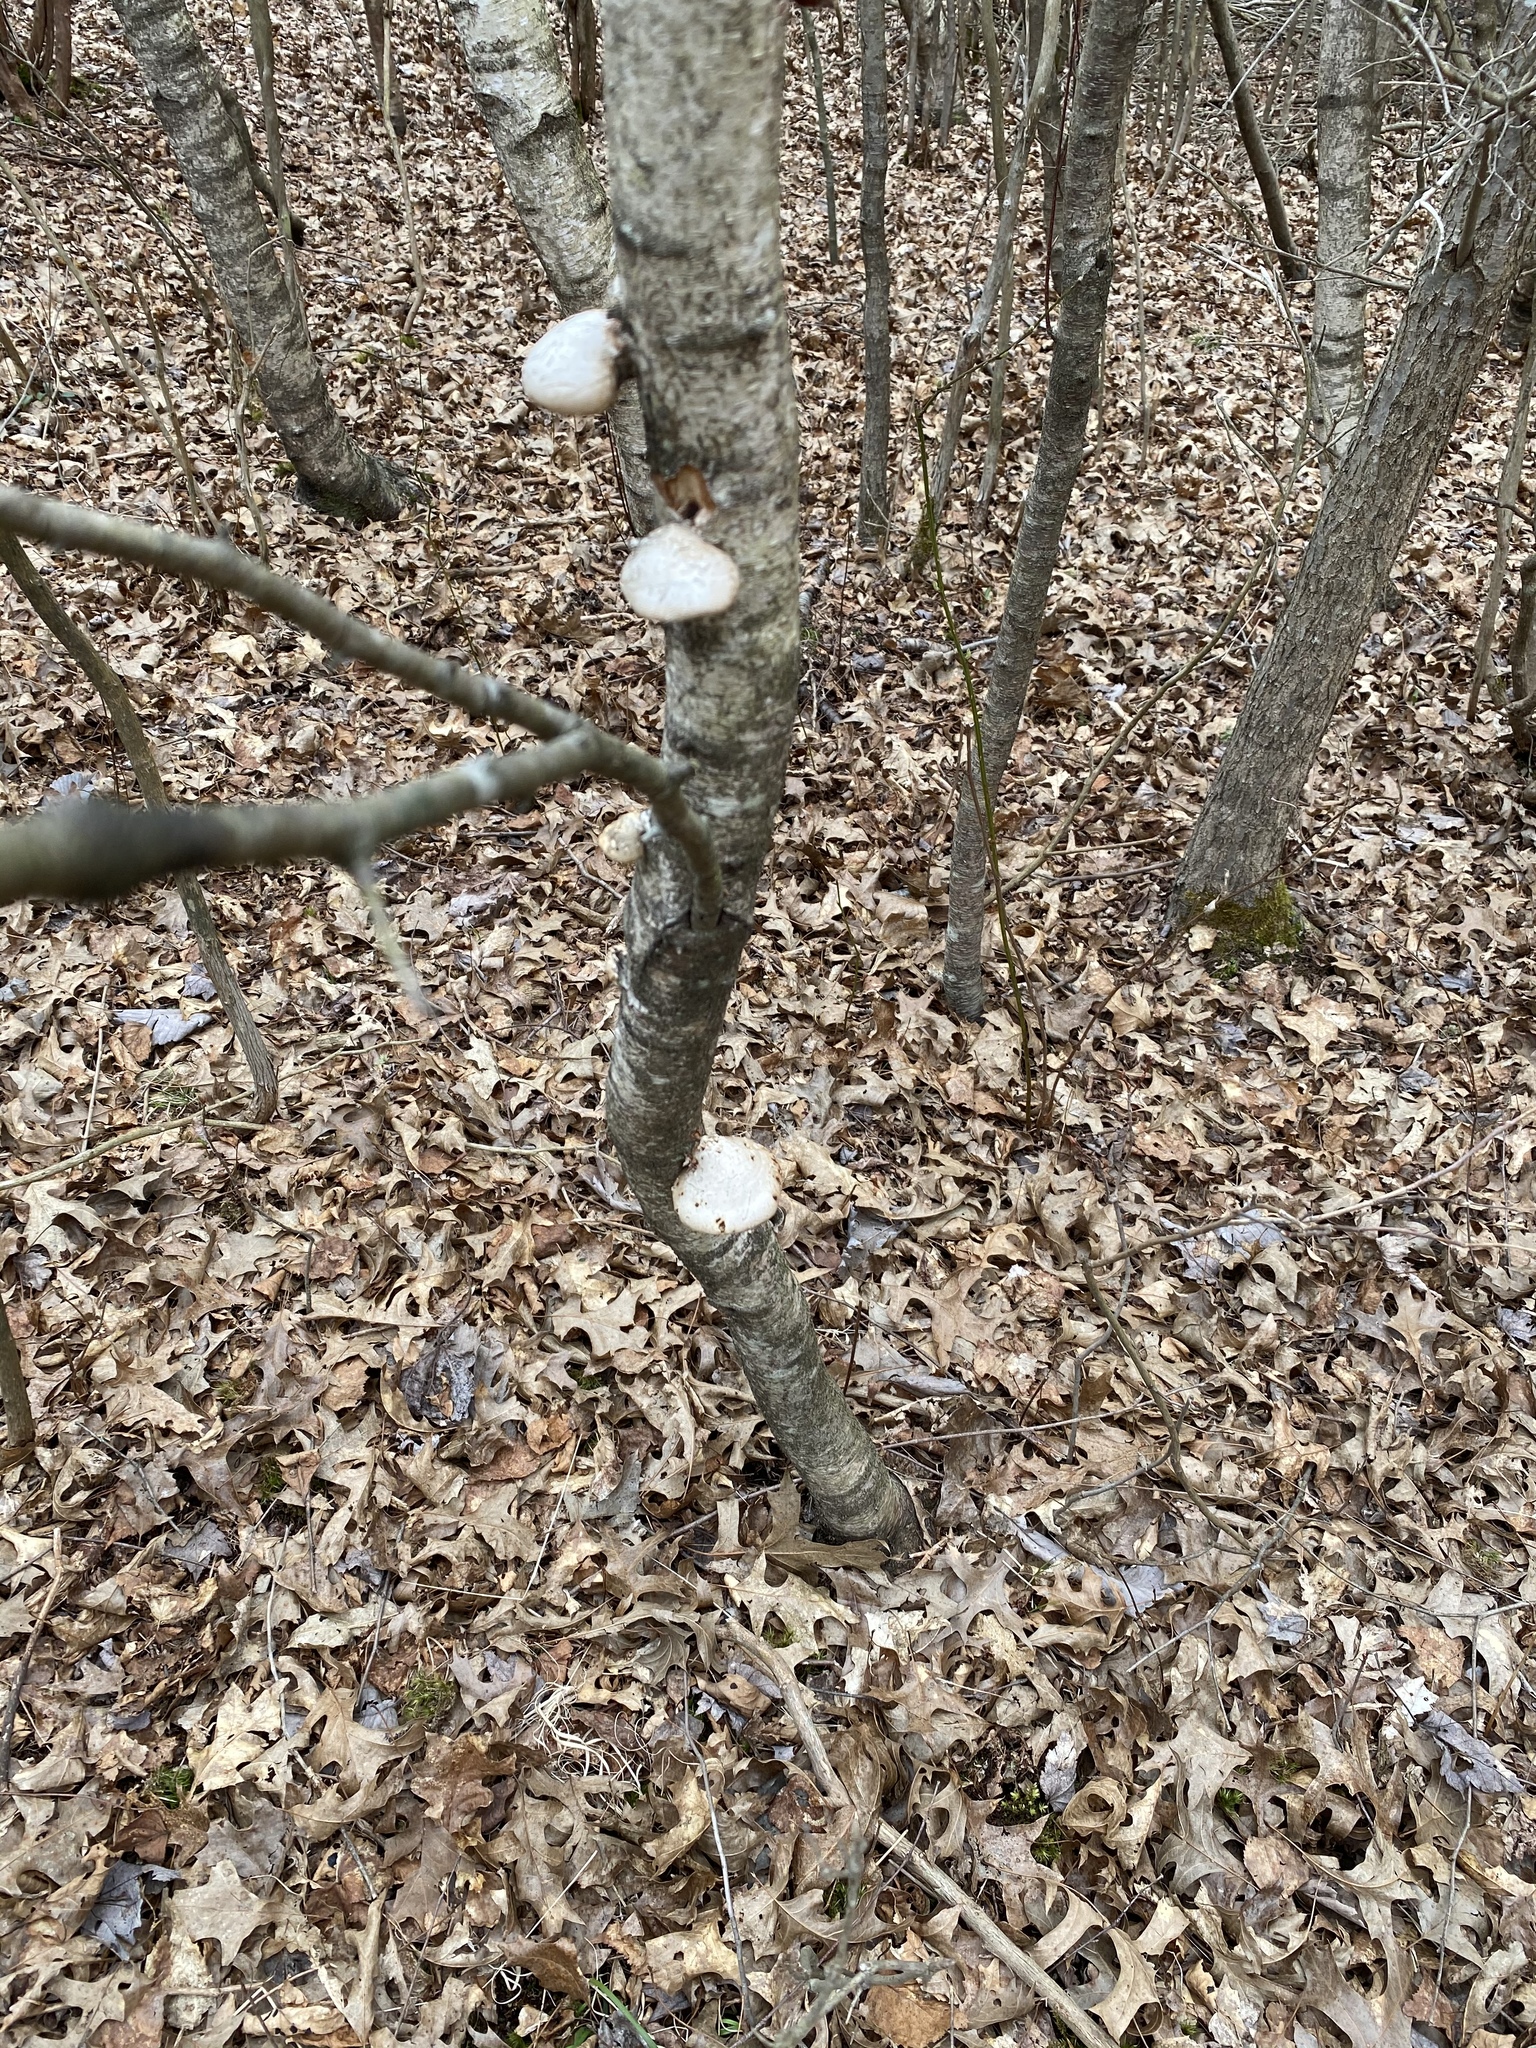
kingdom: Fungi
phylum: Basidiomycota
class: Agaricomycetes
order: Polyporales
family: Fomitopsidaceae
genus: Fomitopsis
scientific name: Fomitopsis betulina
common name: Birch polypore
